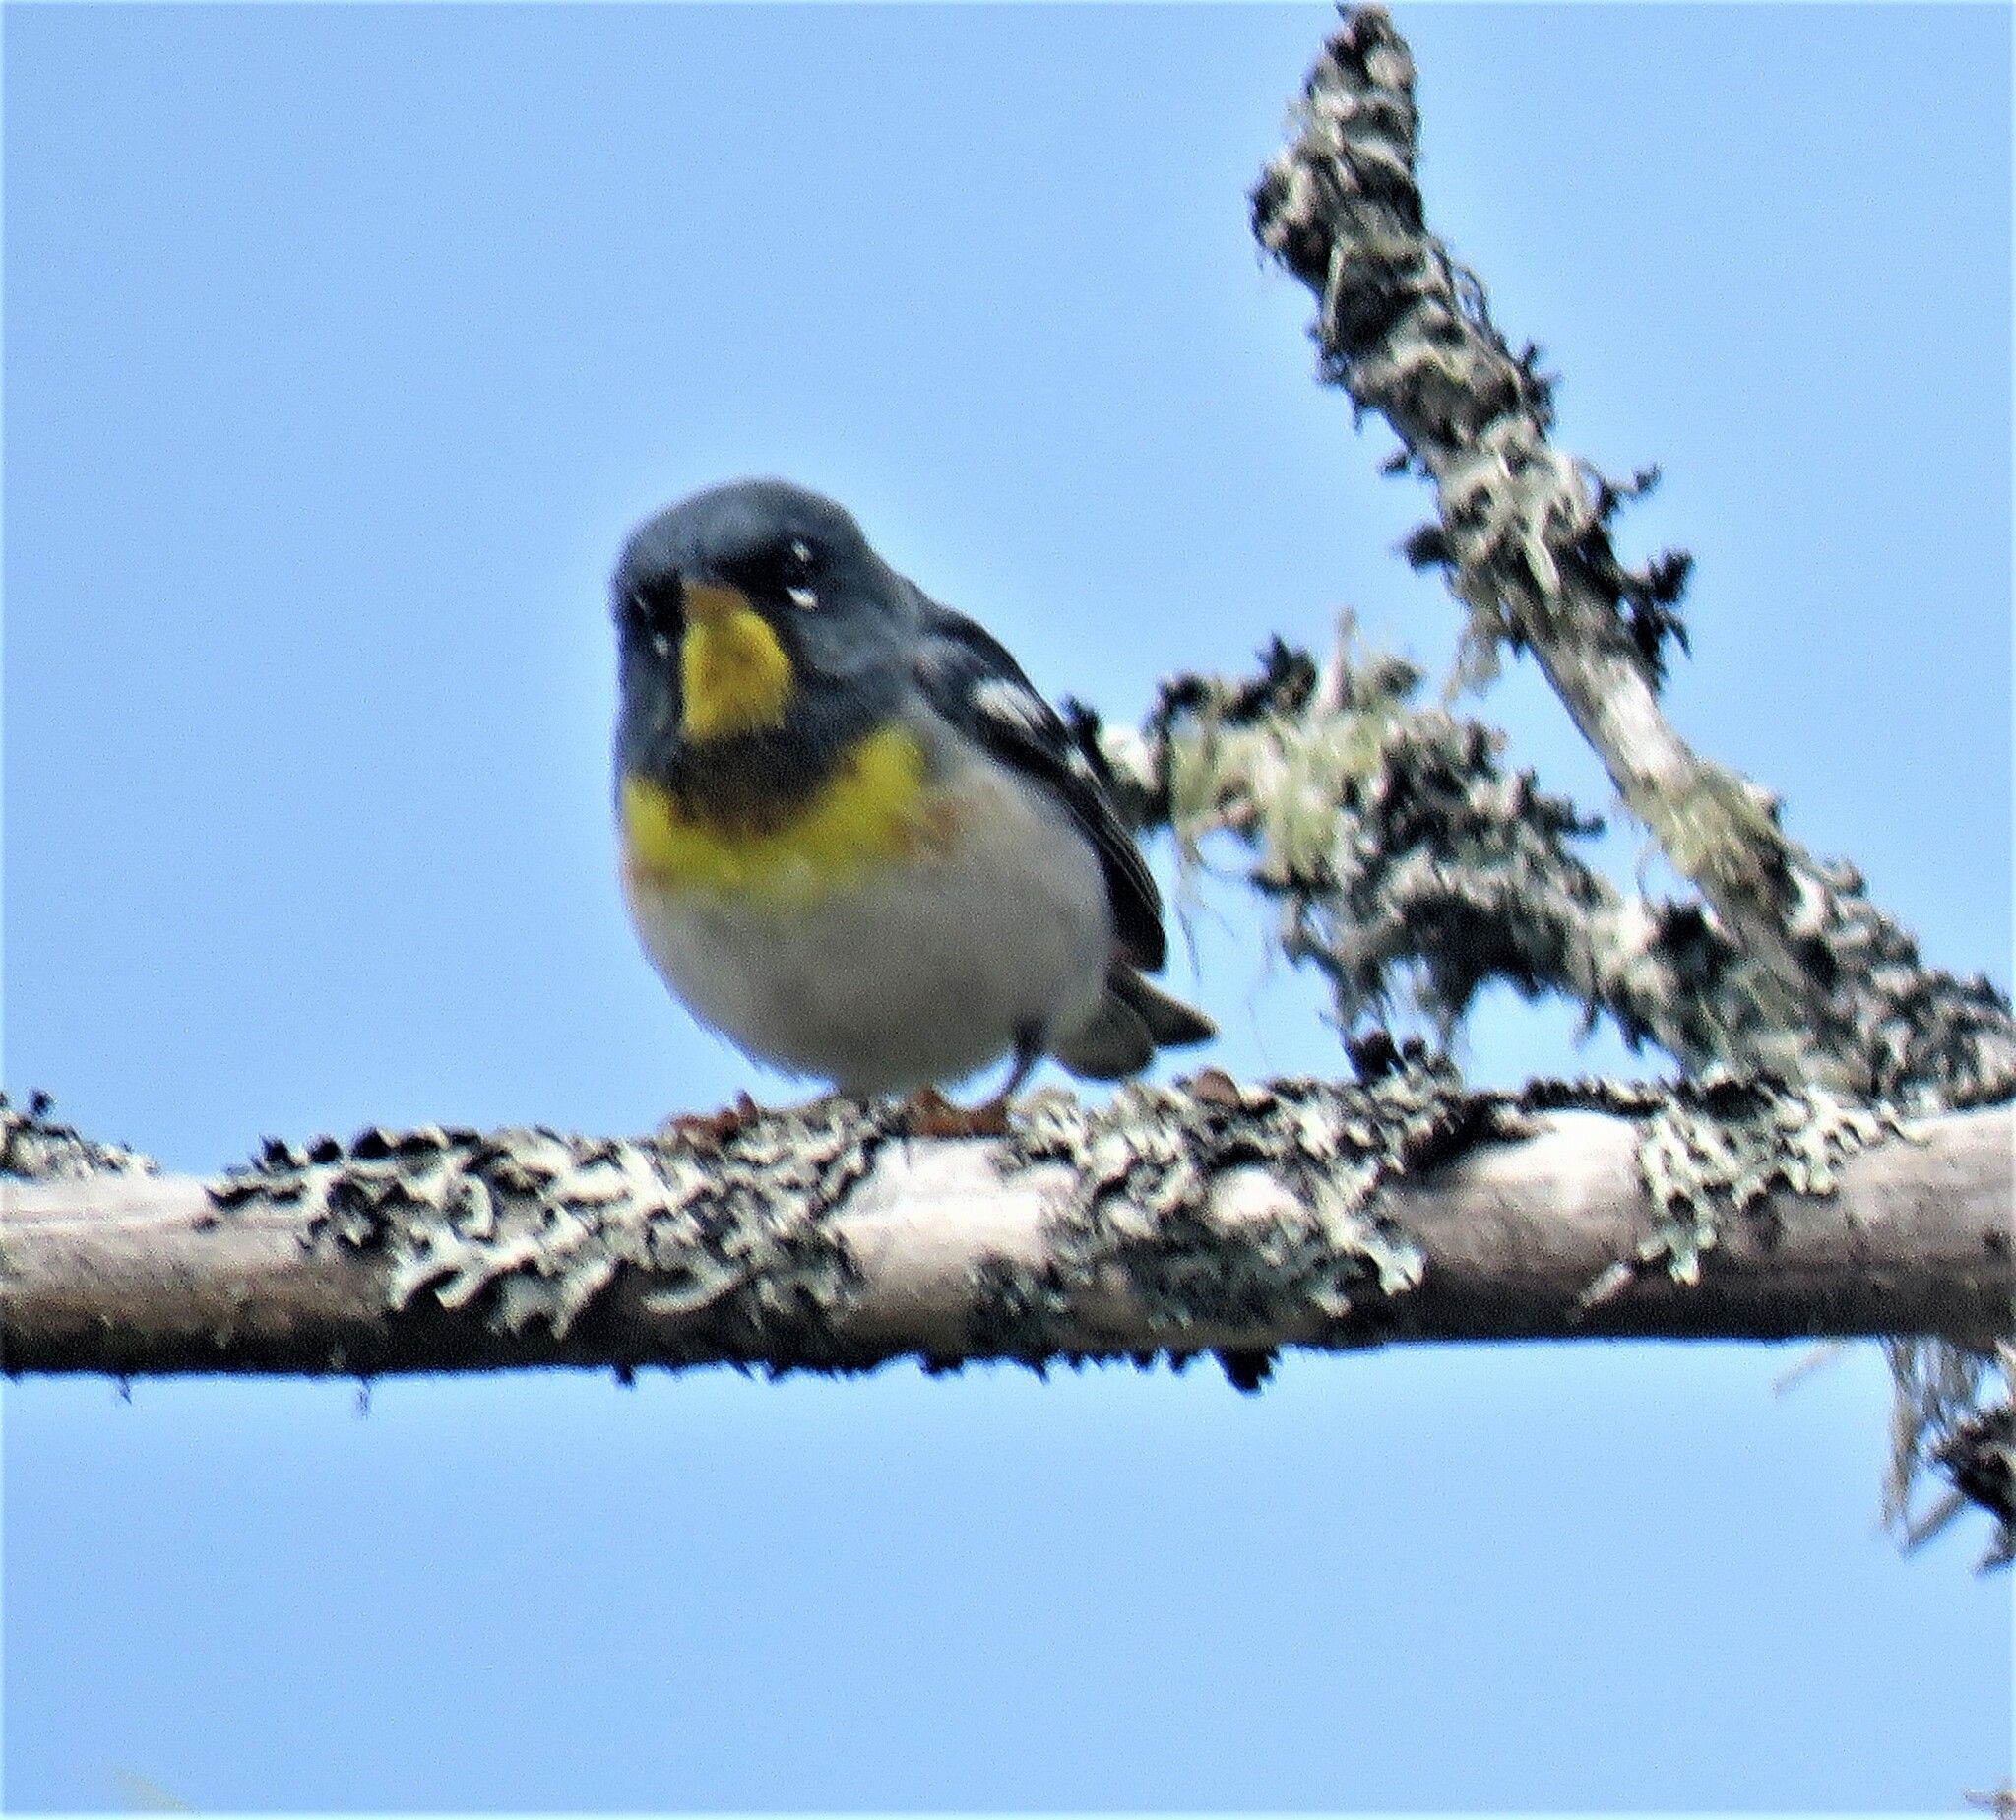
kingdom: Animalia
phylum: Chordata
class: Aves
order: Passeriformes
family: Parulidae
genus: Setophaga
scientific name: Setophaga americana
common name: Northern parula
